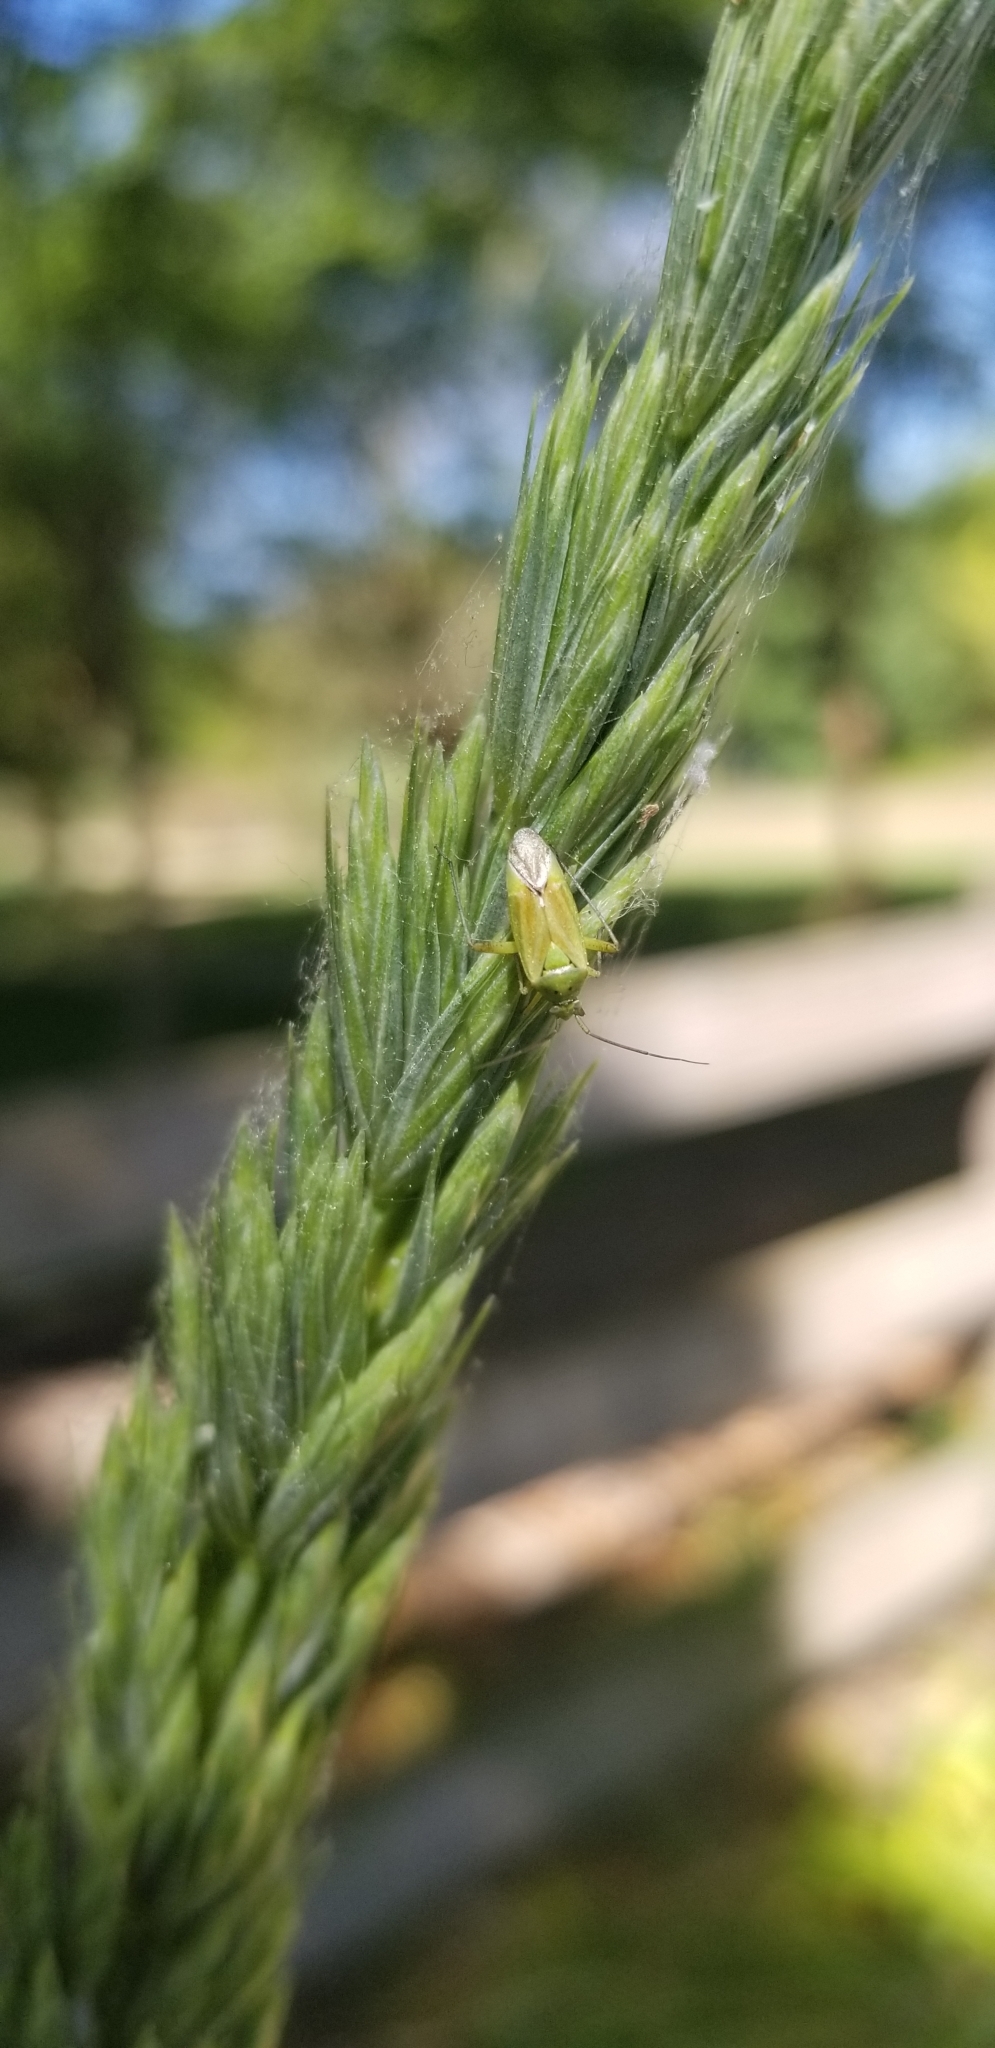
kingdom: Animalia
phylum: Arthropoda
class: Insecta
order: Hemiptera
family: Miridae
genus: Closterotomus
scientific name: Closterotomus norvegicus
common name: Plant bug
